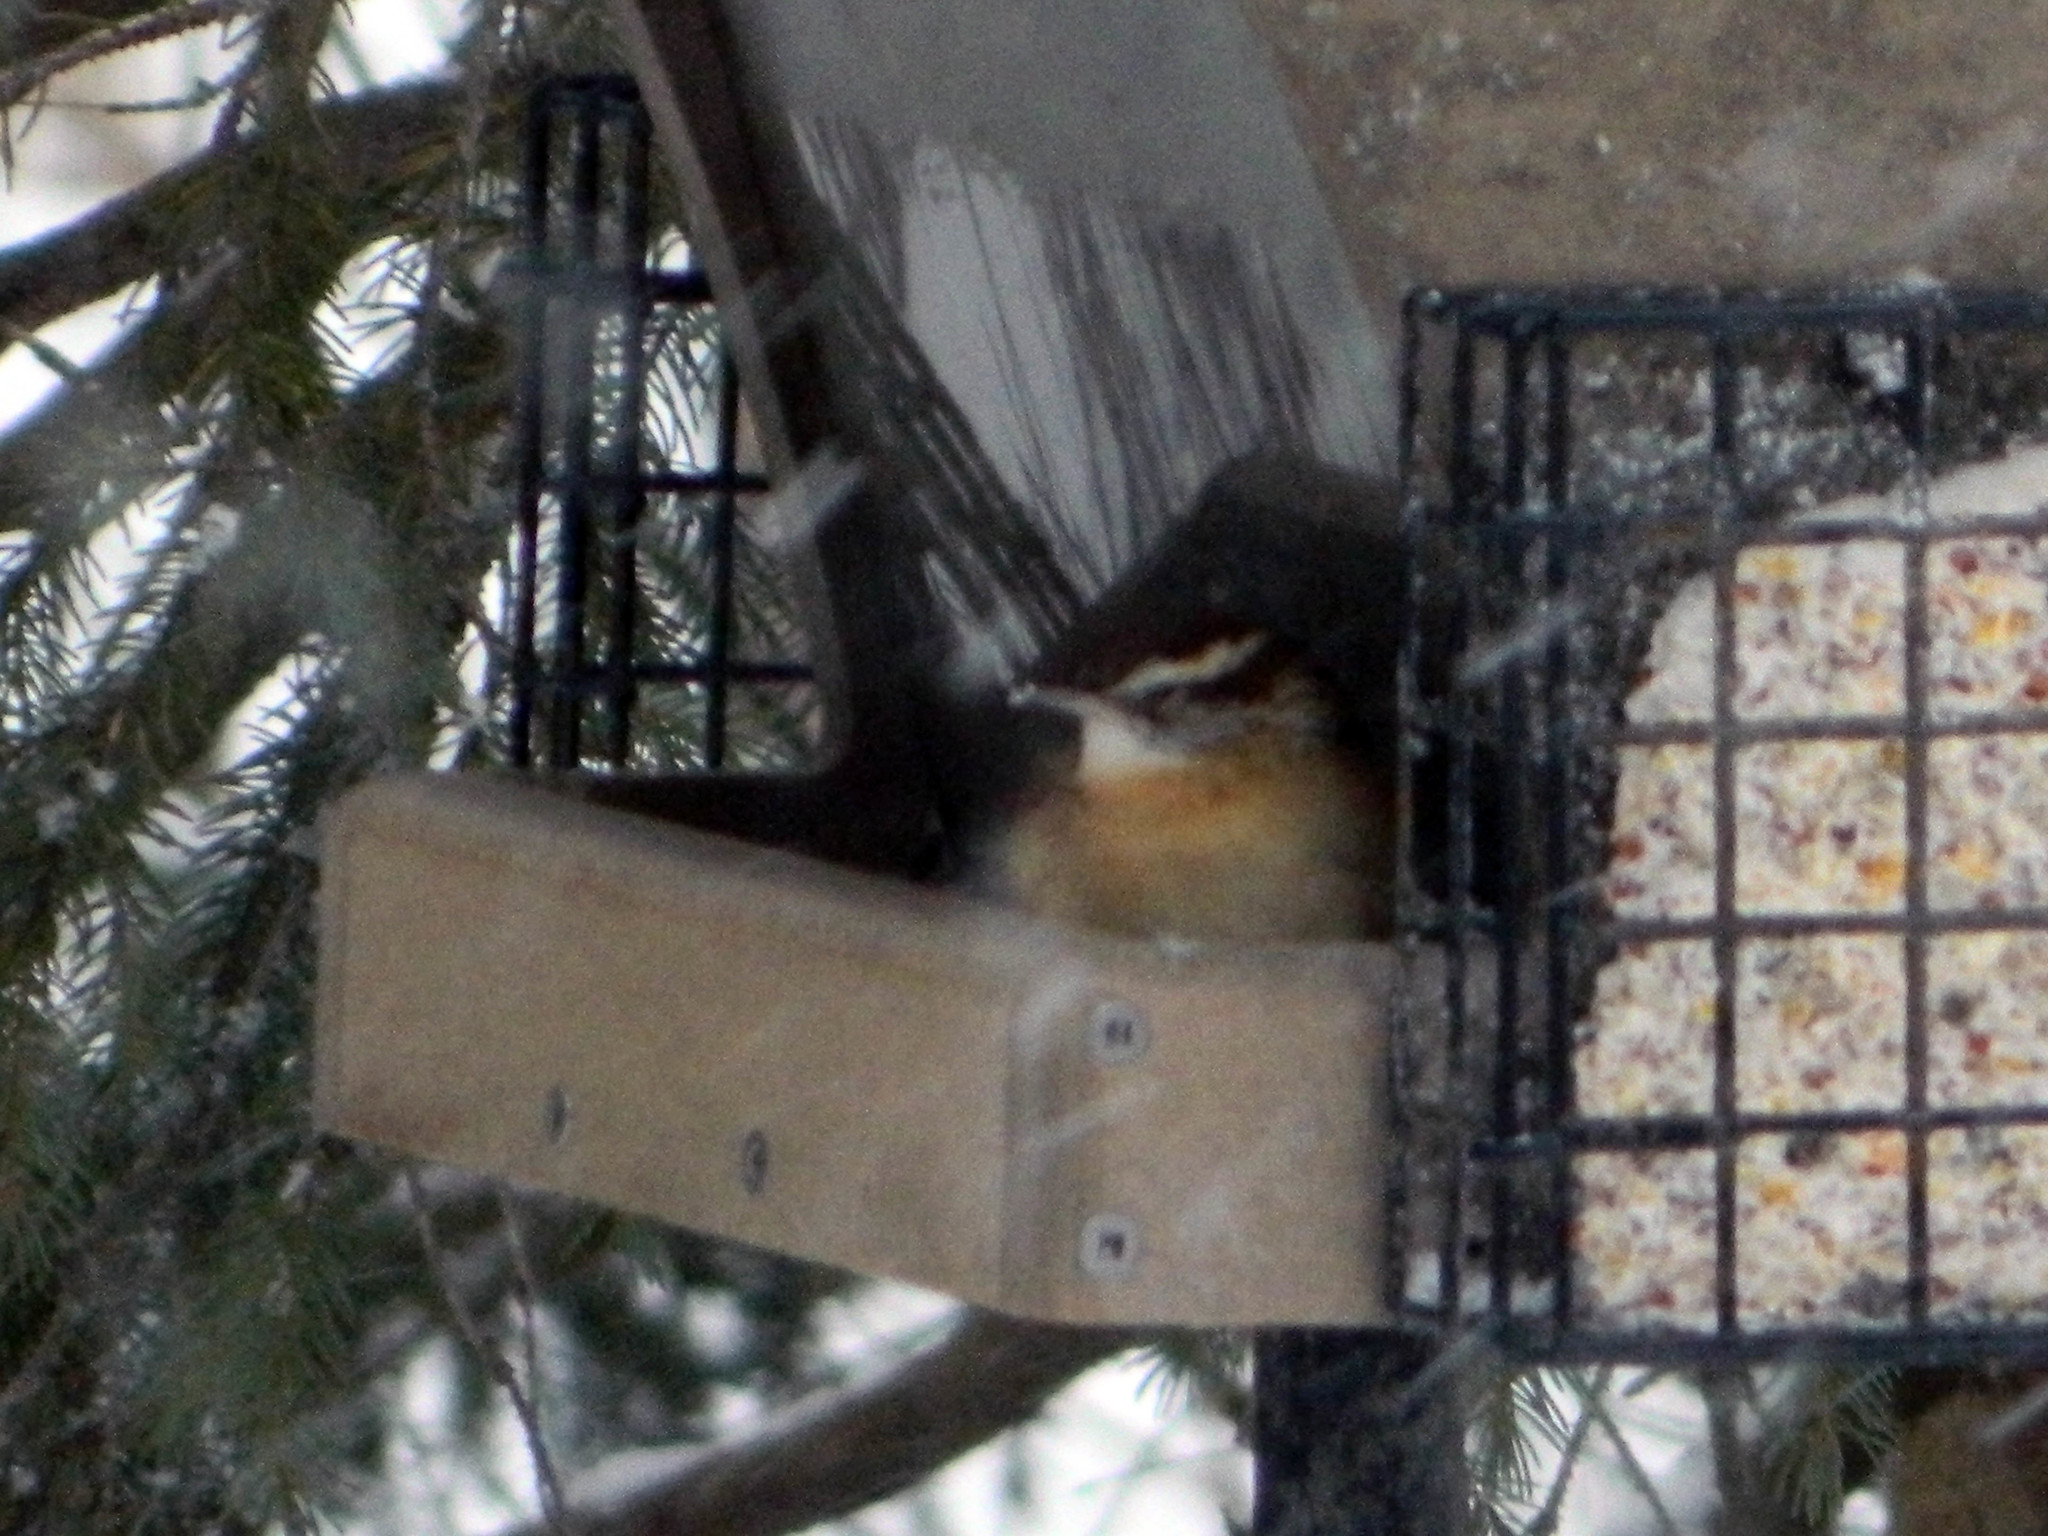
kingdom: Animalia
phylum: Chordata
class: Aves
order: Passeriformes
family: Troglodytidae
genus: Thryothorus
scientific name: Thryothorus ludovicianus
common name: Carolina wren
